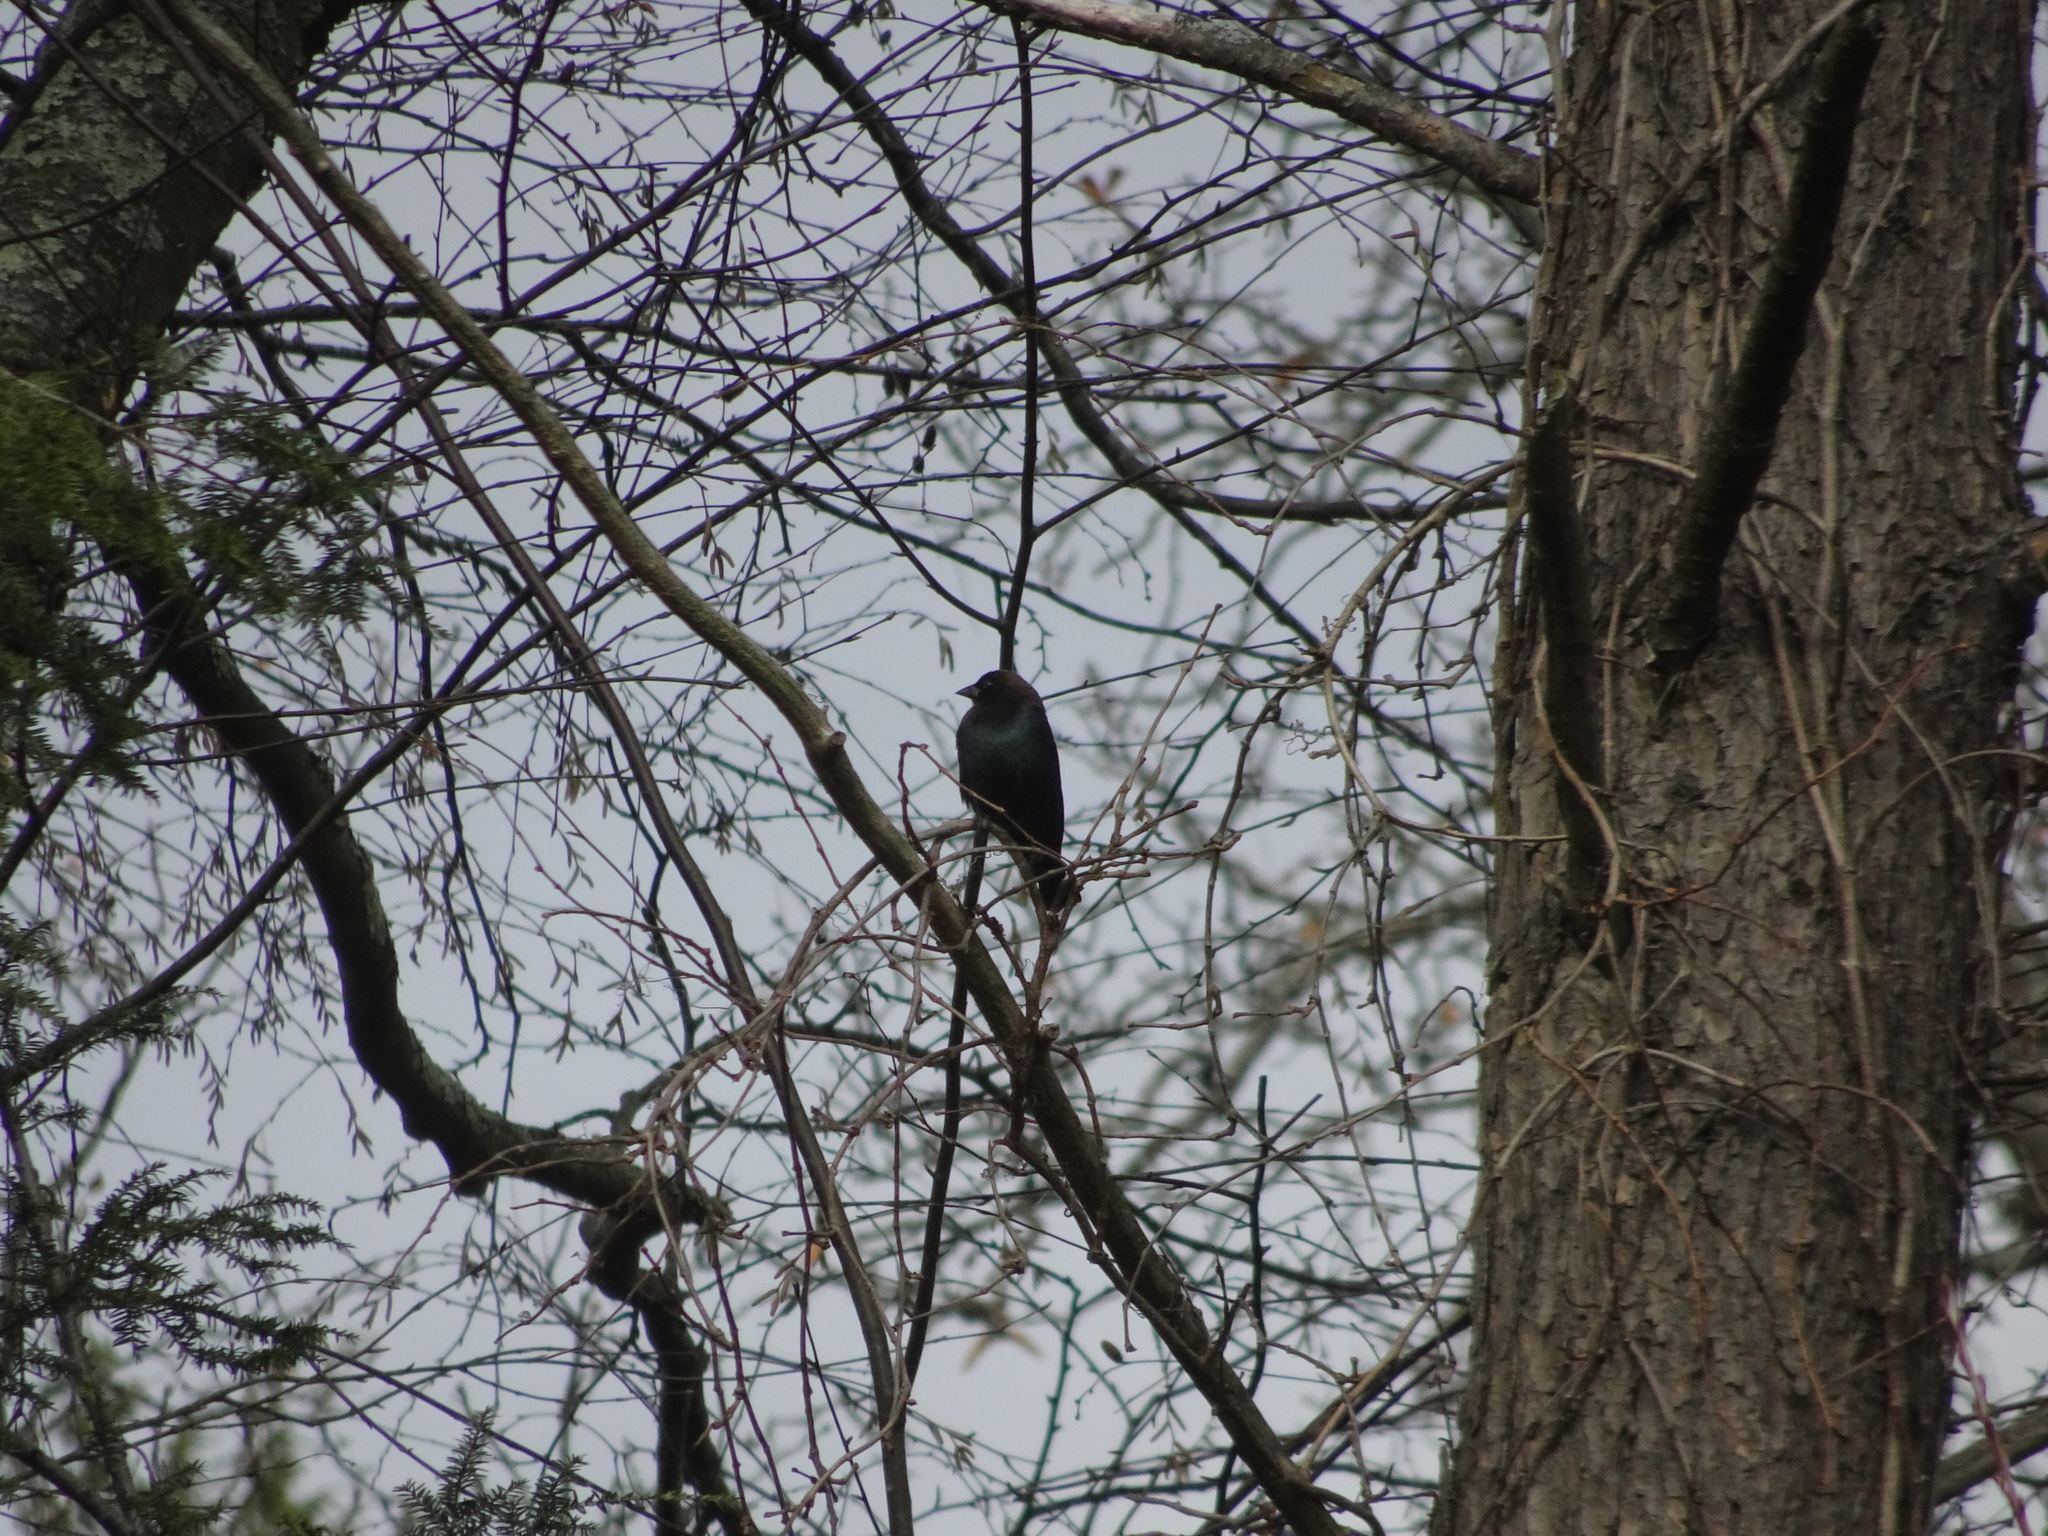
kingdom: Animalia
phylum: Chordata
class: Aves
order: Passeriformes
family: Icteridae
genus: Molothrus
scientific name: Molothrus ater
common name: Brown-headed cowbird
